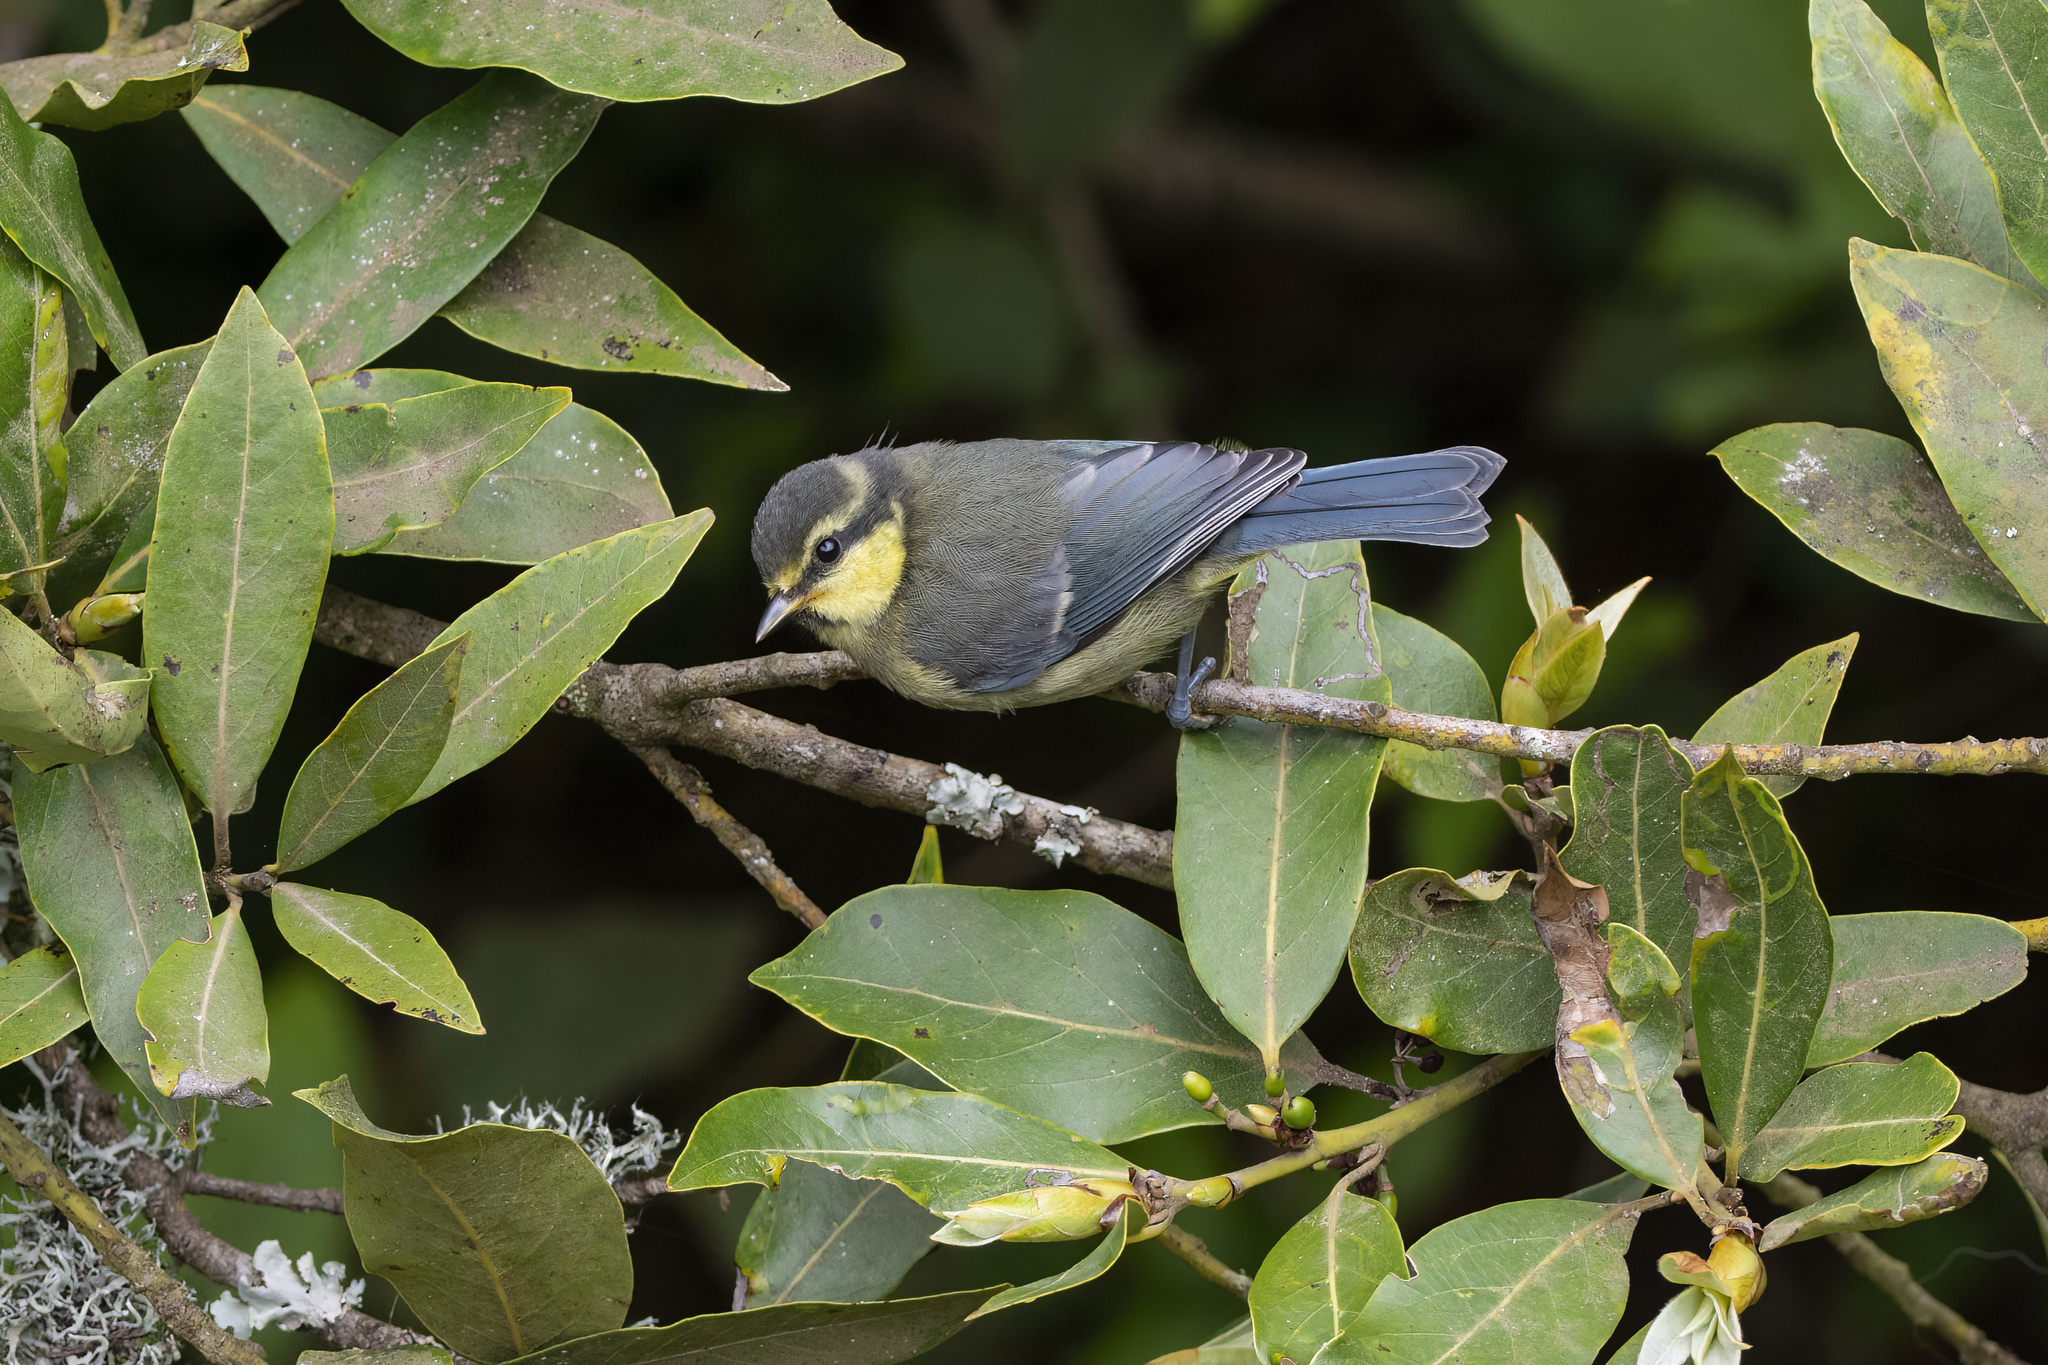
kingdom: Animalia
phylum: Chordata
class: Aves
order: Passeriformes
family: Paridae
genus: Cyanistes
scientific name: Cyanistes teneriffae
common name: African blue tit
